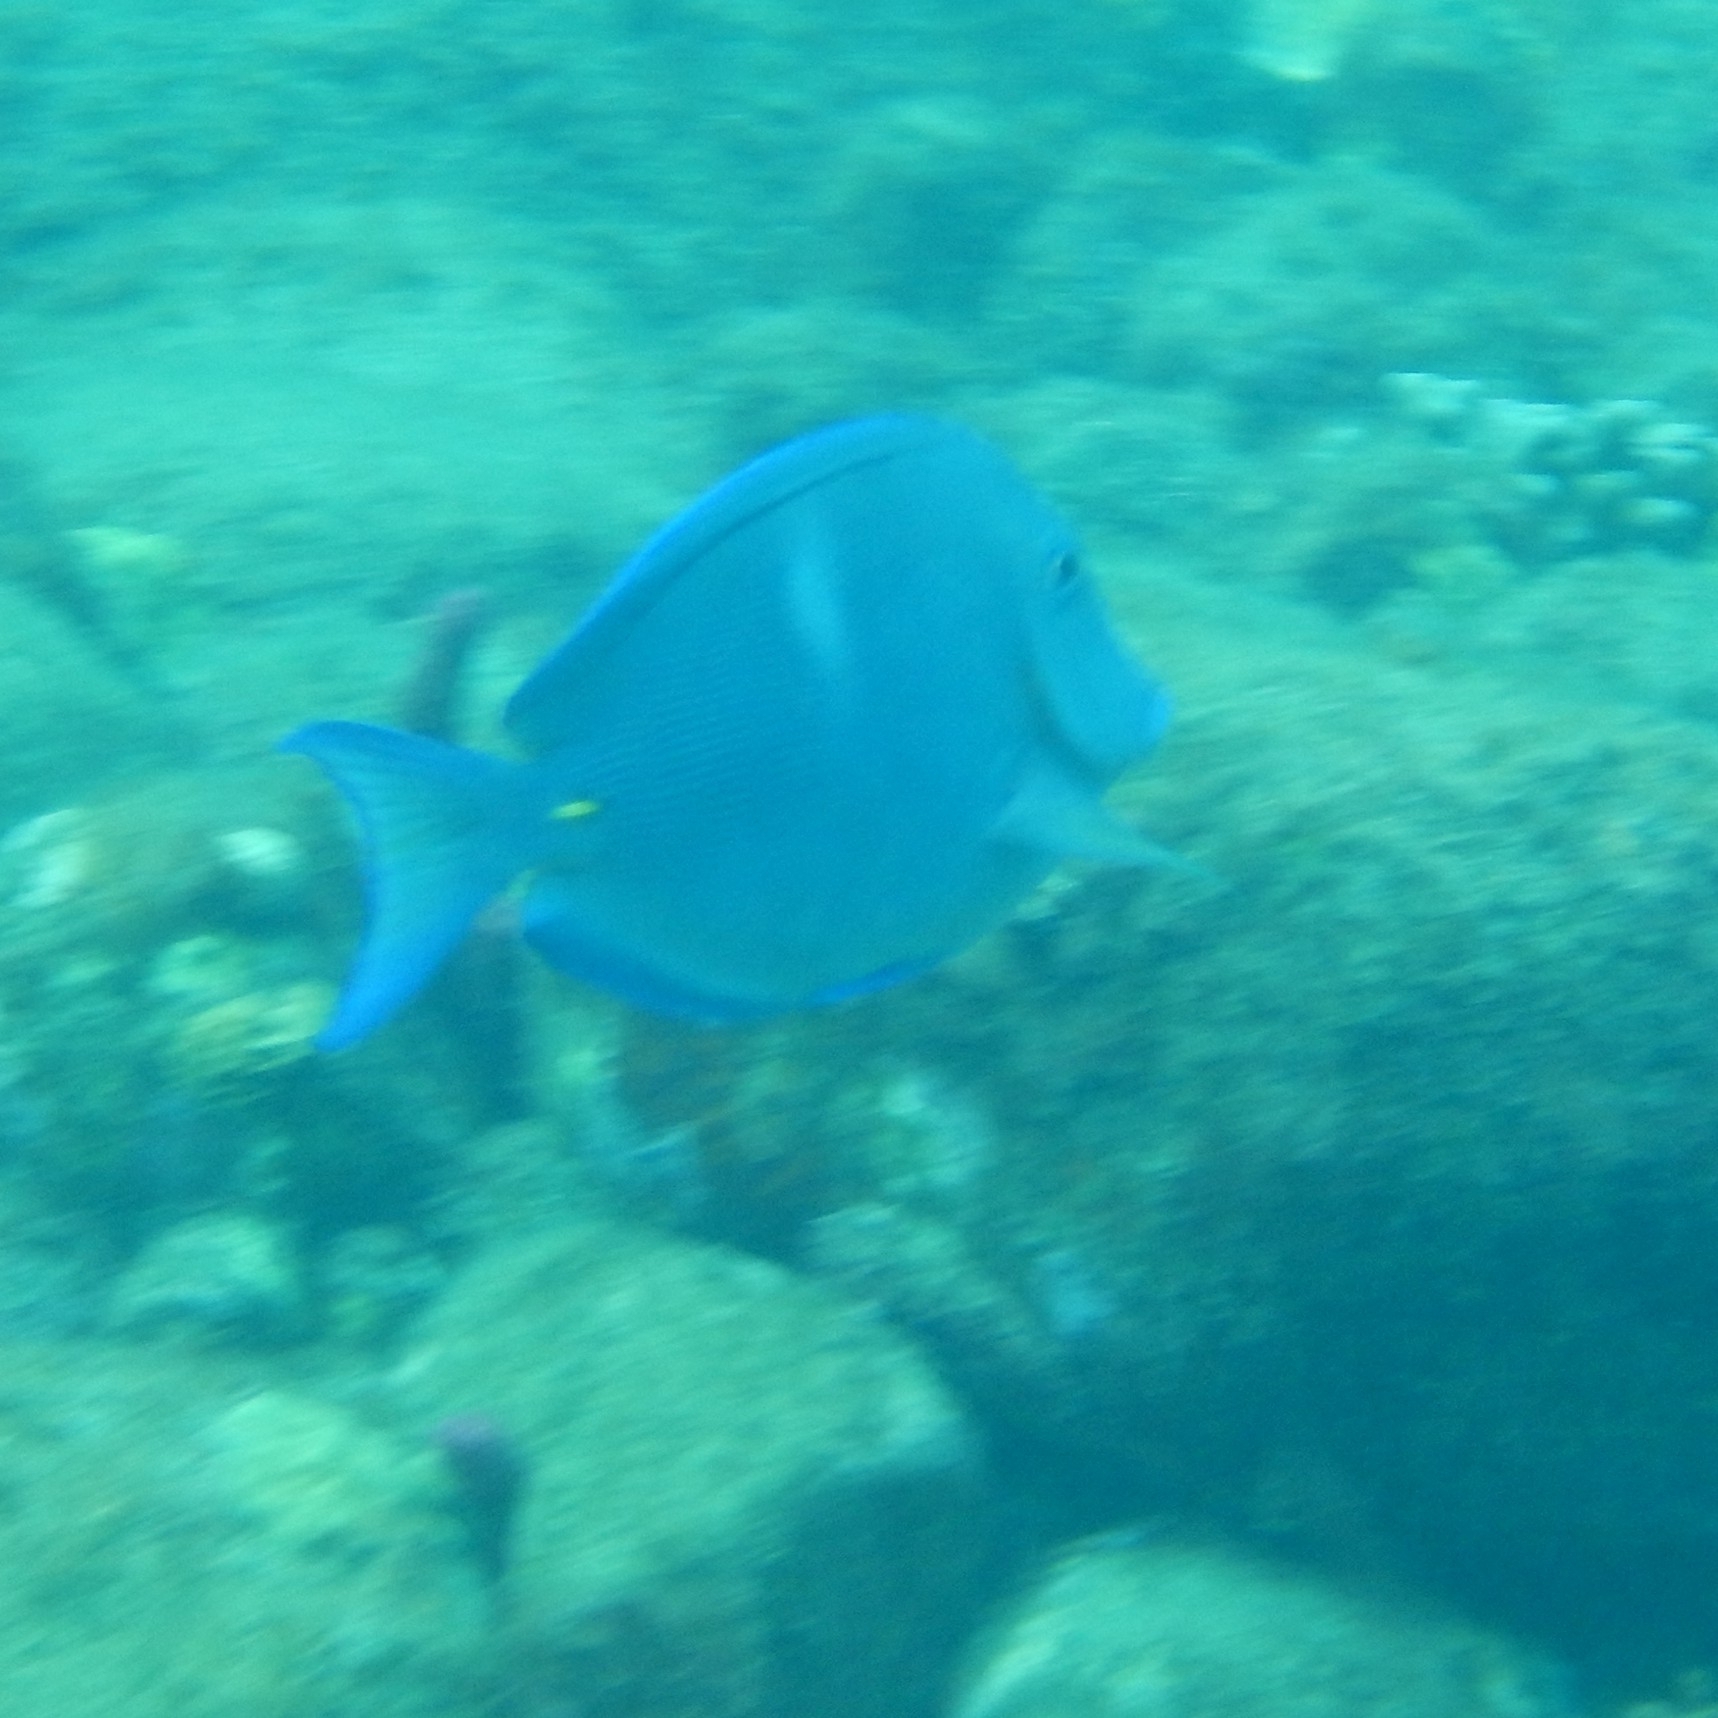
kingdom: Animalia
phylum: Chordata
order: Perciformes
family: Acanthuridae
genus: Acanthurus
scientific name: Acanthurus coeruleus
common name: Blue tang
